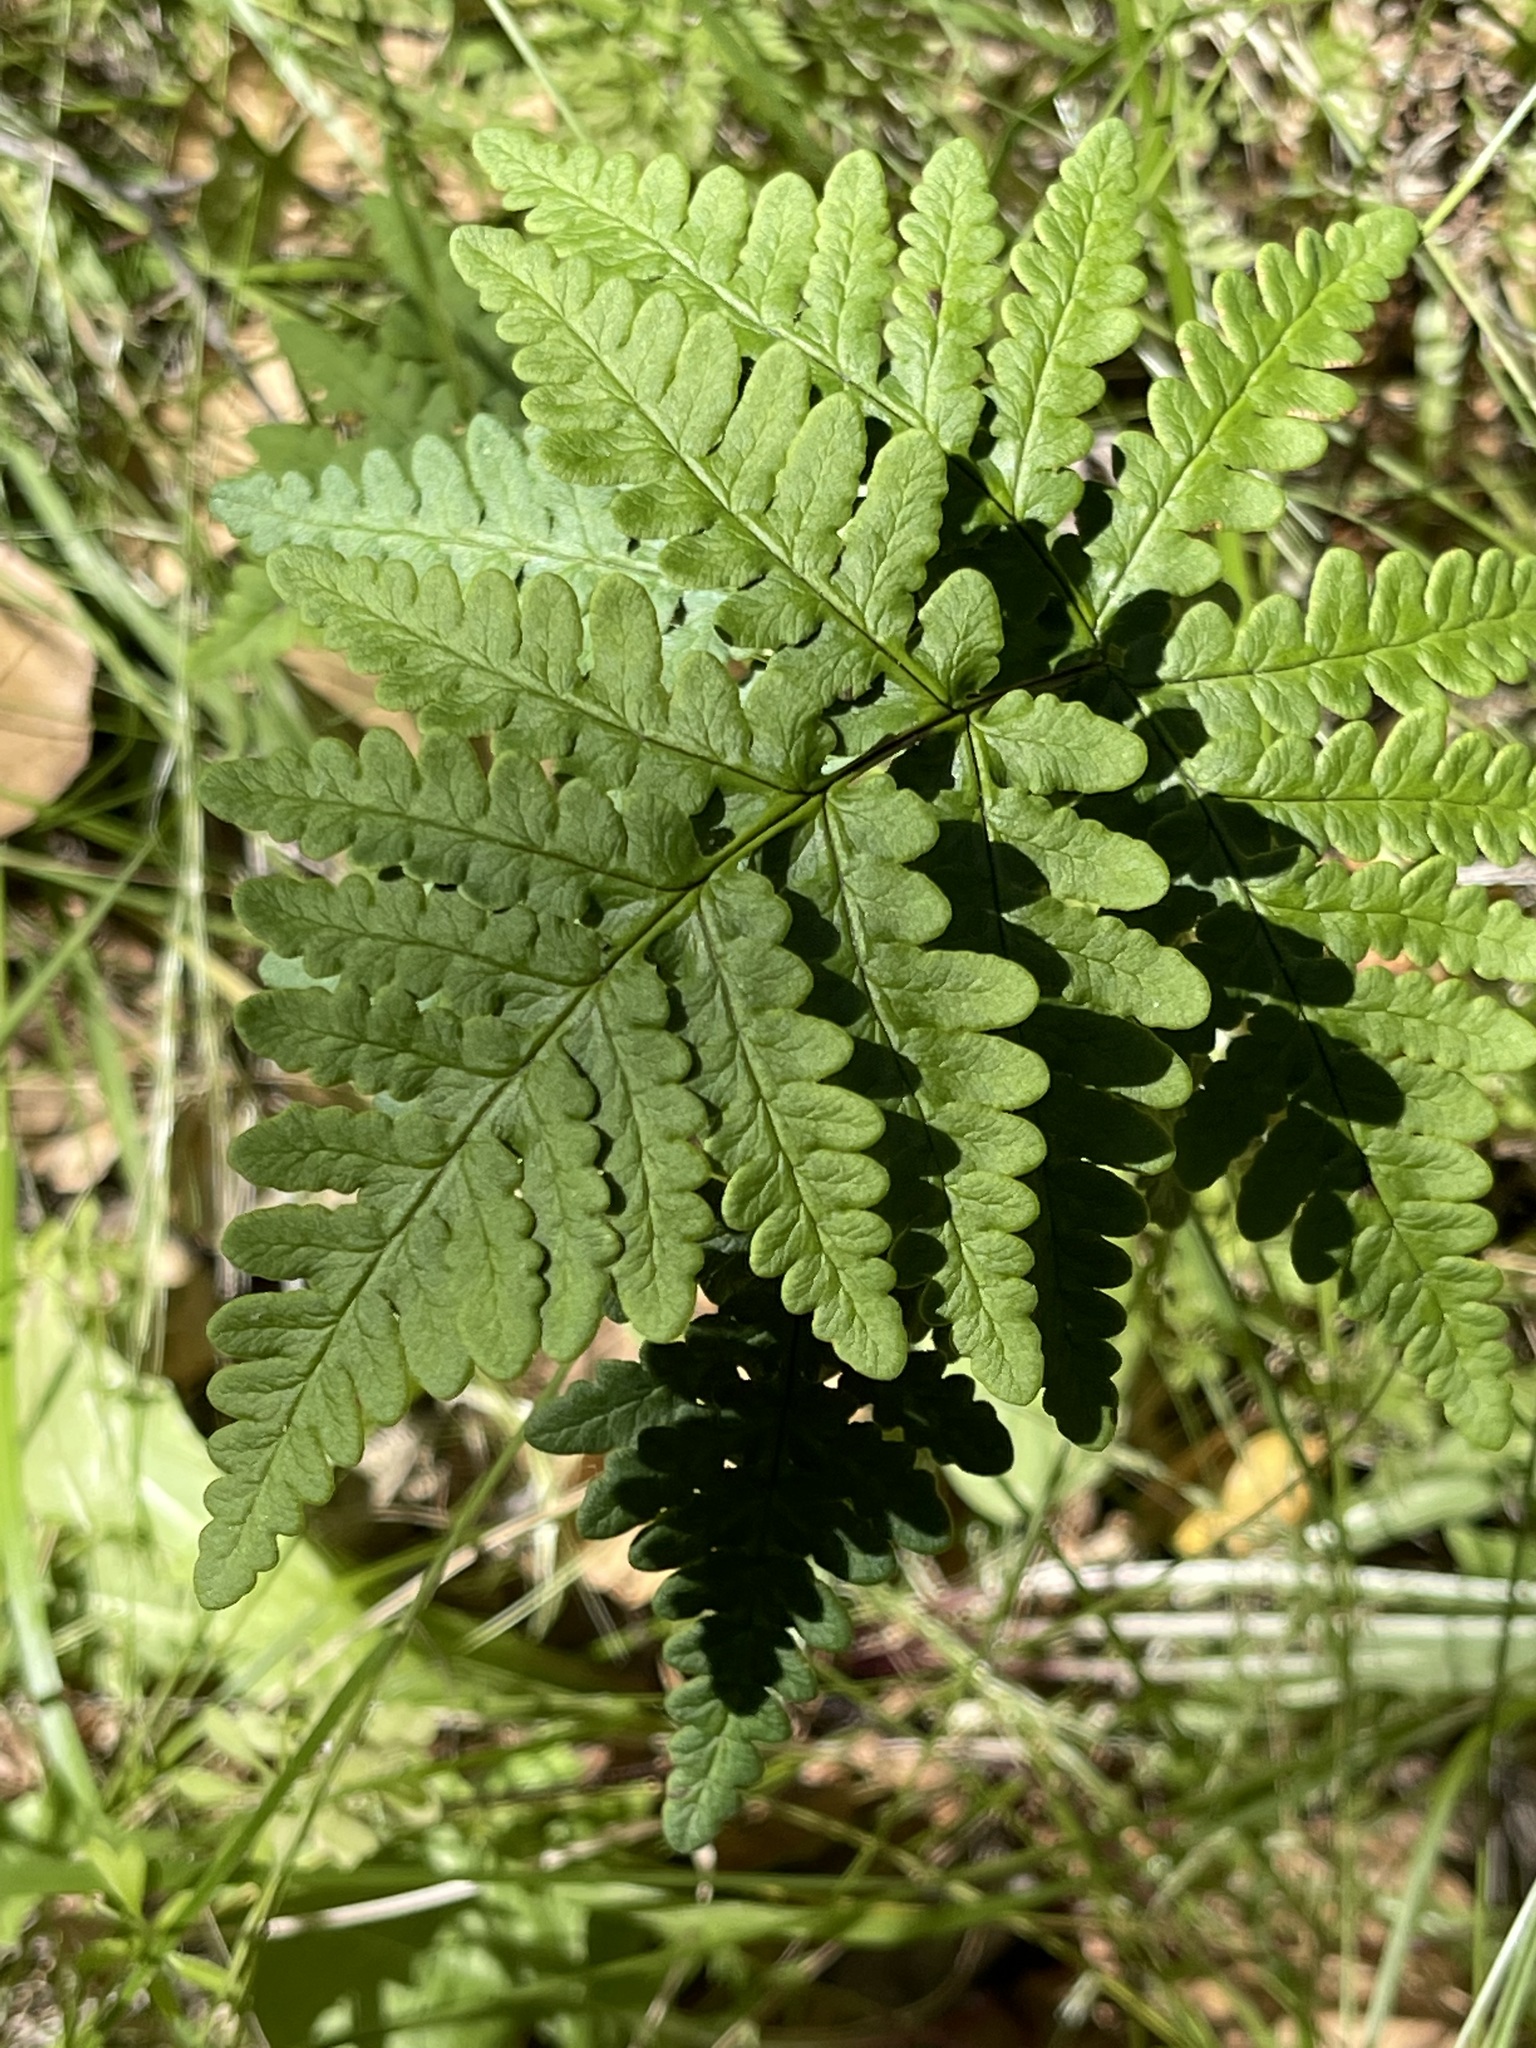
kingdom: Plantae
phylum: Tracheophyta
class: Polypodiopsida
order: Polypodiales
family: Pteridaceae
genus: Pentagramma
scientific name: Pentagramma triangularis
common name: Gold fern
